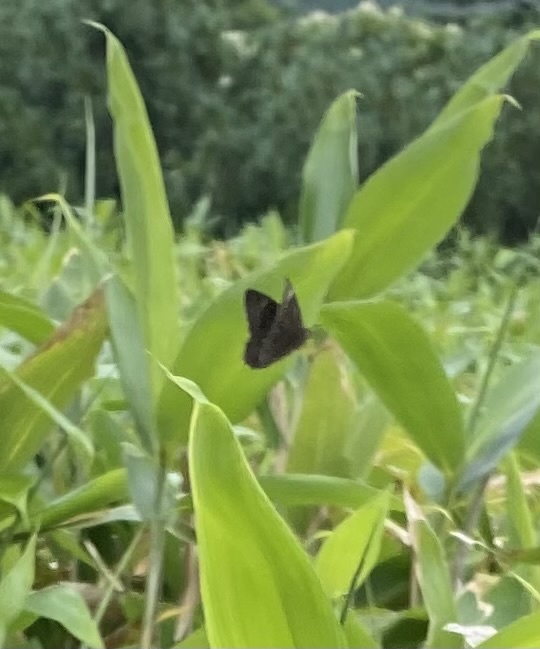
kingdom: Animalia
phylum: Arthropoda
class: Insecta
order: Lepidoptera
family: Nymphalidae
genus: Lethe
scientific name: Lethe diana
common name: Diana treebrown
